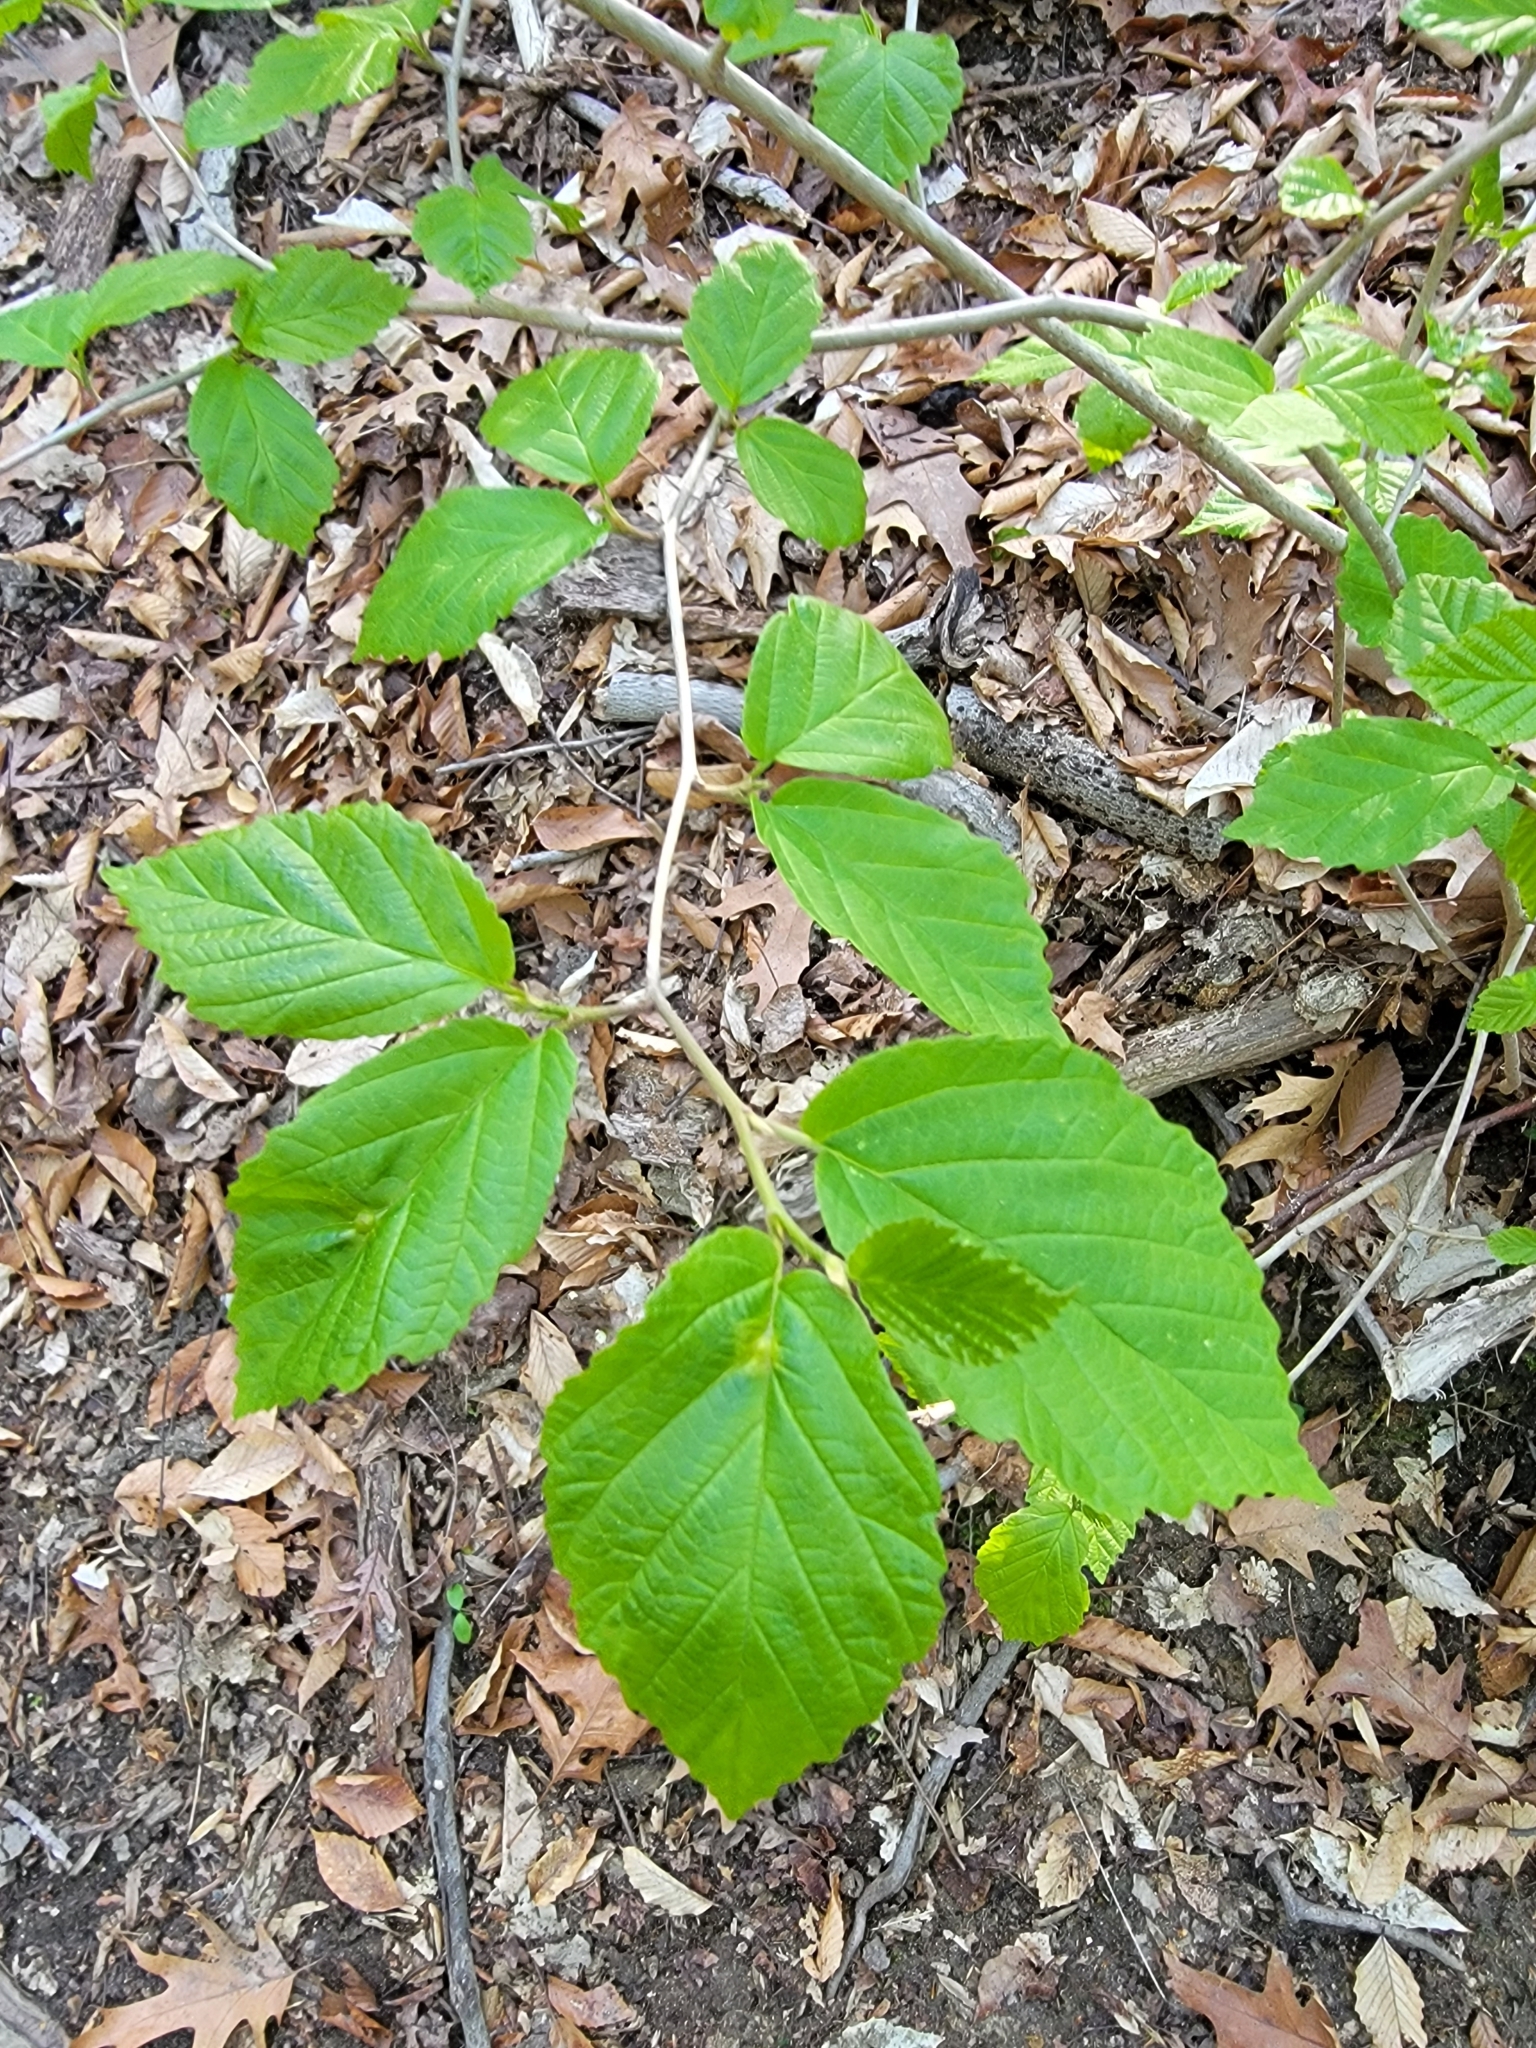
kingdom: Plantae
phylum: Tracheophyta
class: Magnoliopsida
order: Saxifragales
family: Hamamelidaceae
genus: Hamamelis
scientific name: Hamamelis virginiana
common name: Witch-hazel
